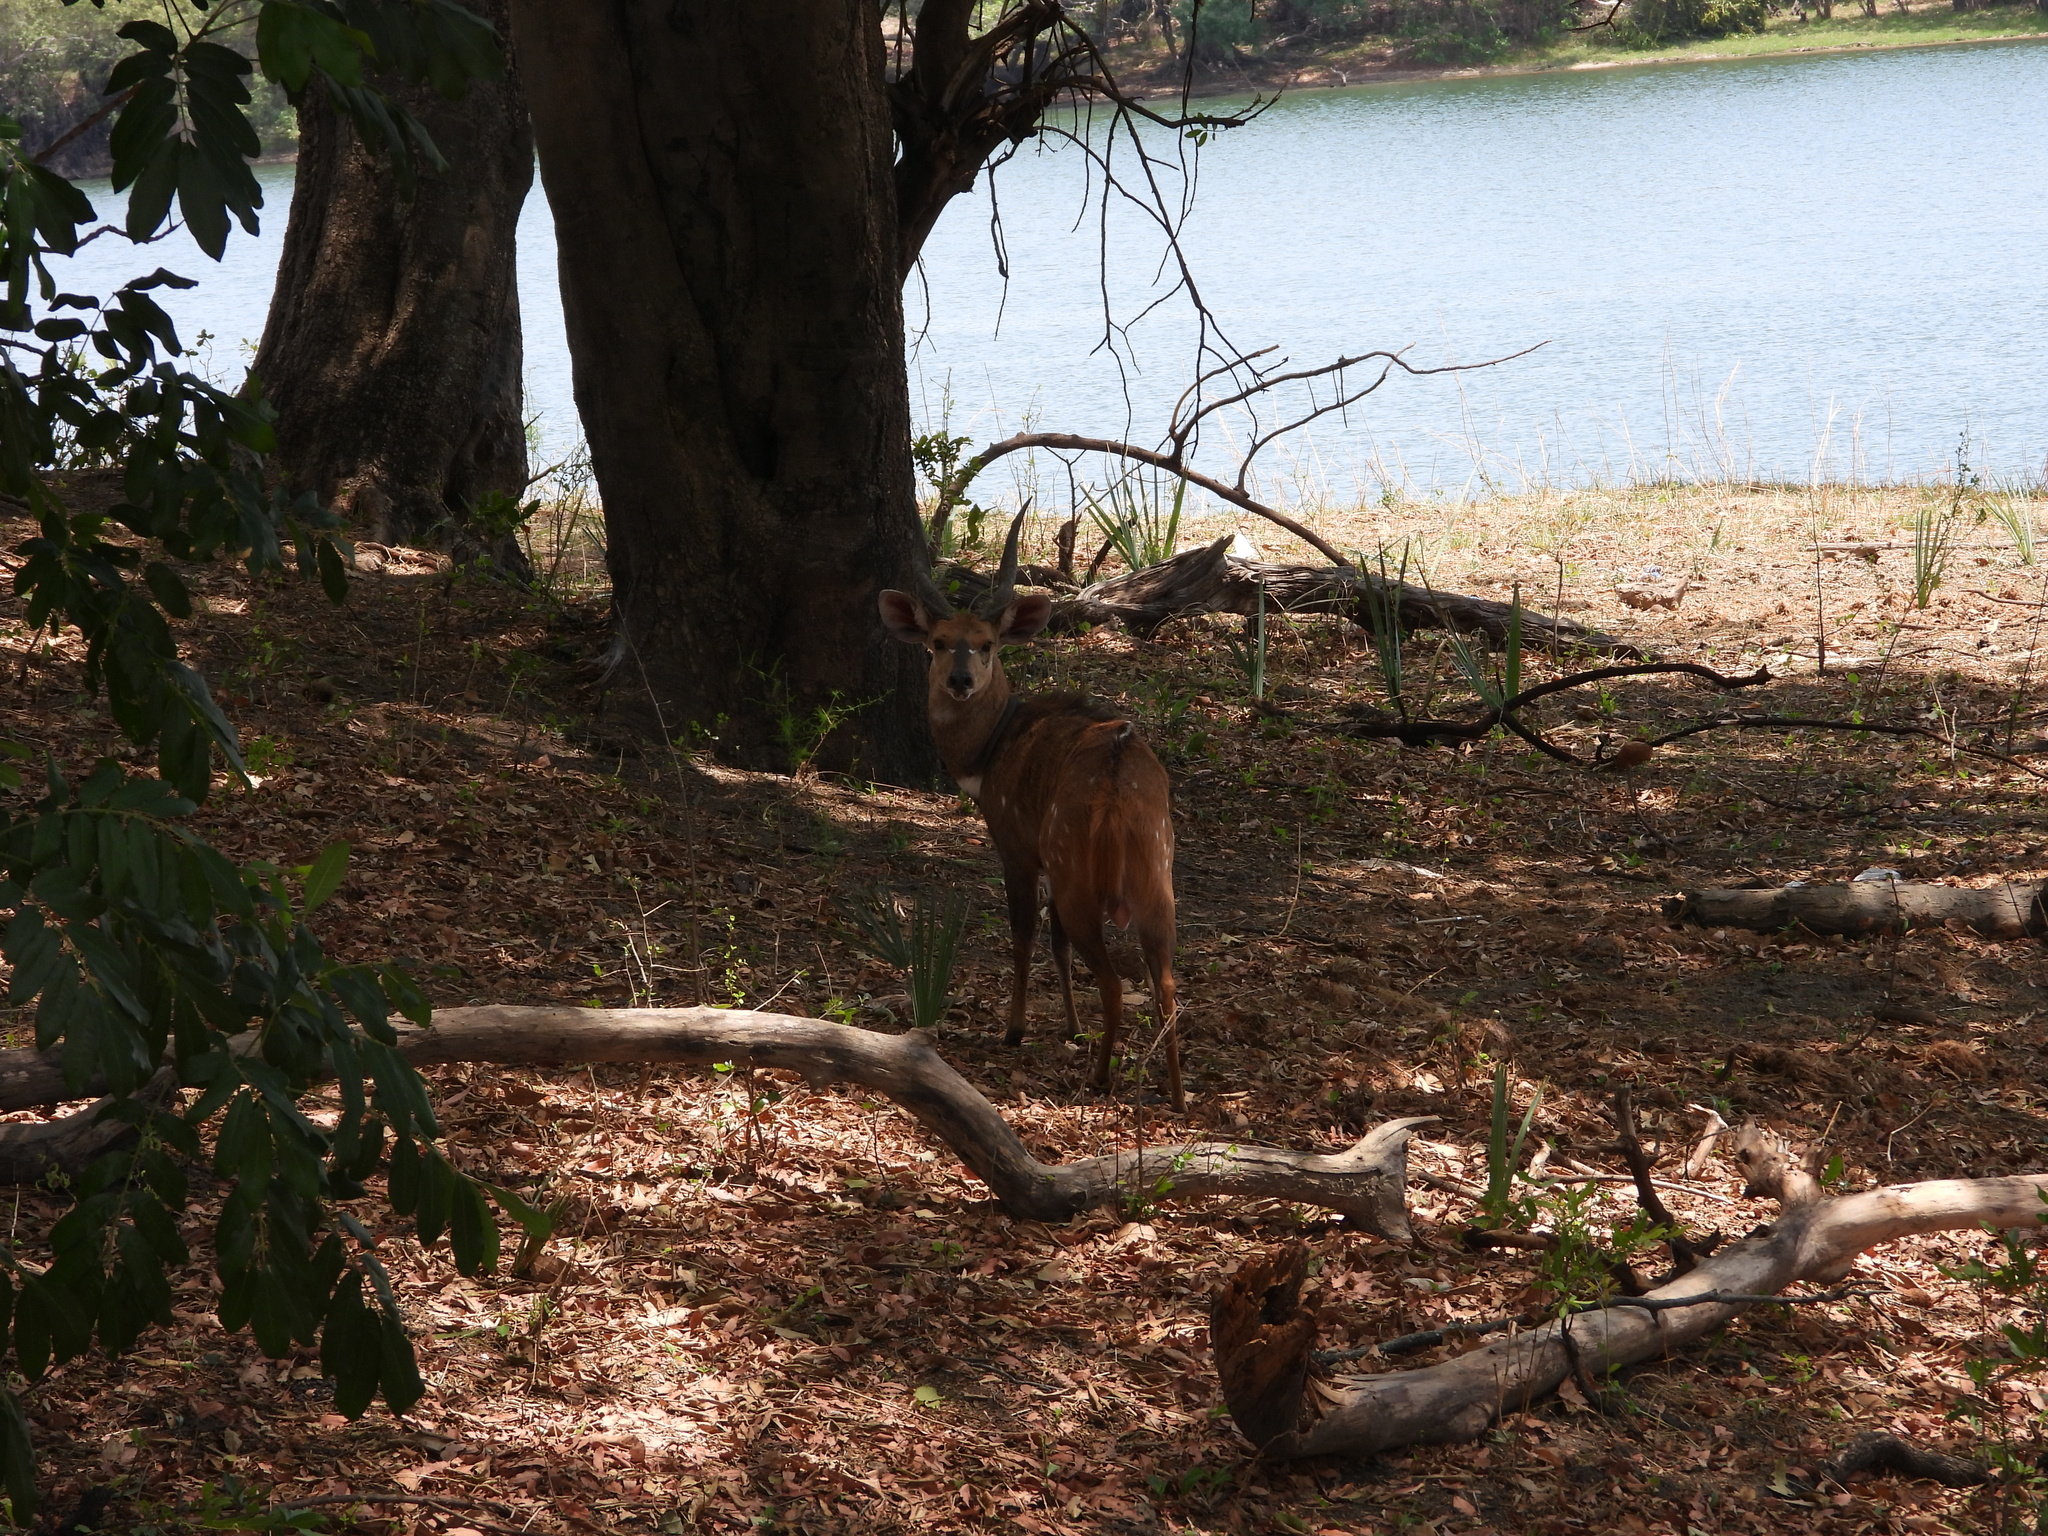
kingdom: Animalia
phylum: Chordata
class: Mammalia
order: Artiodactyla
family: Bovidae
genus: Tragelaphus
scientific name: Tragelaphus scriptus
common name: Bushbuck
